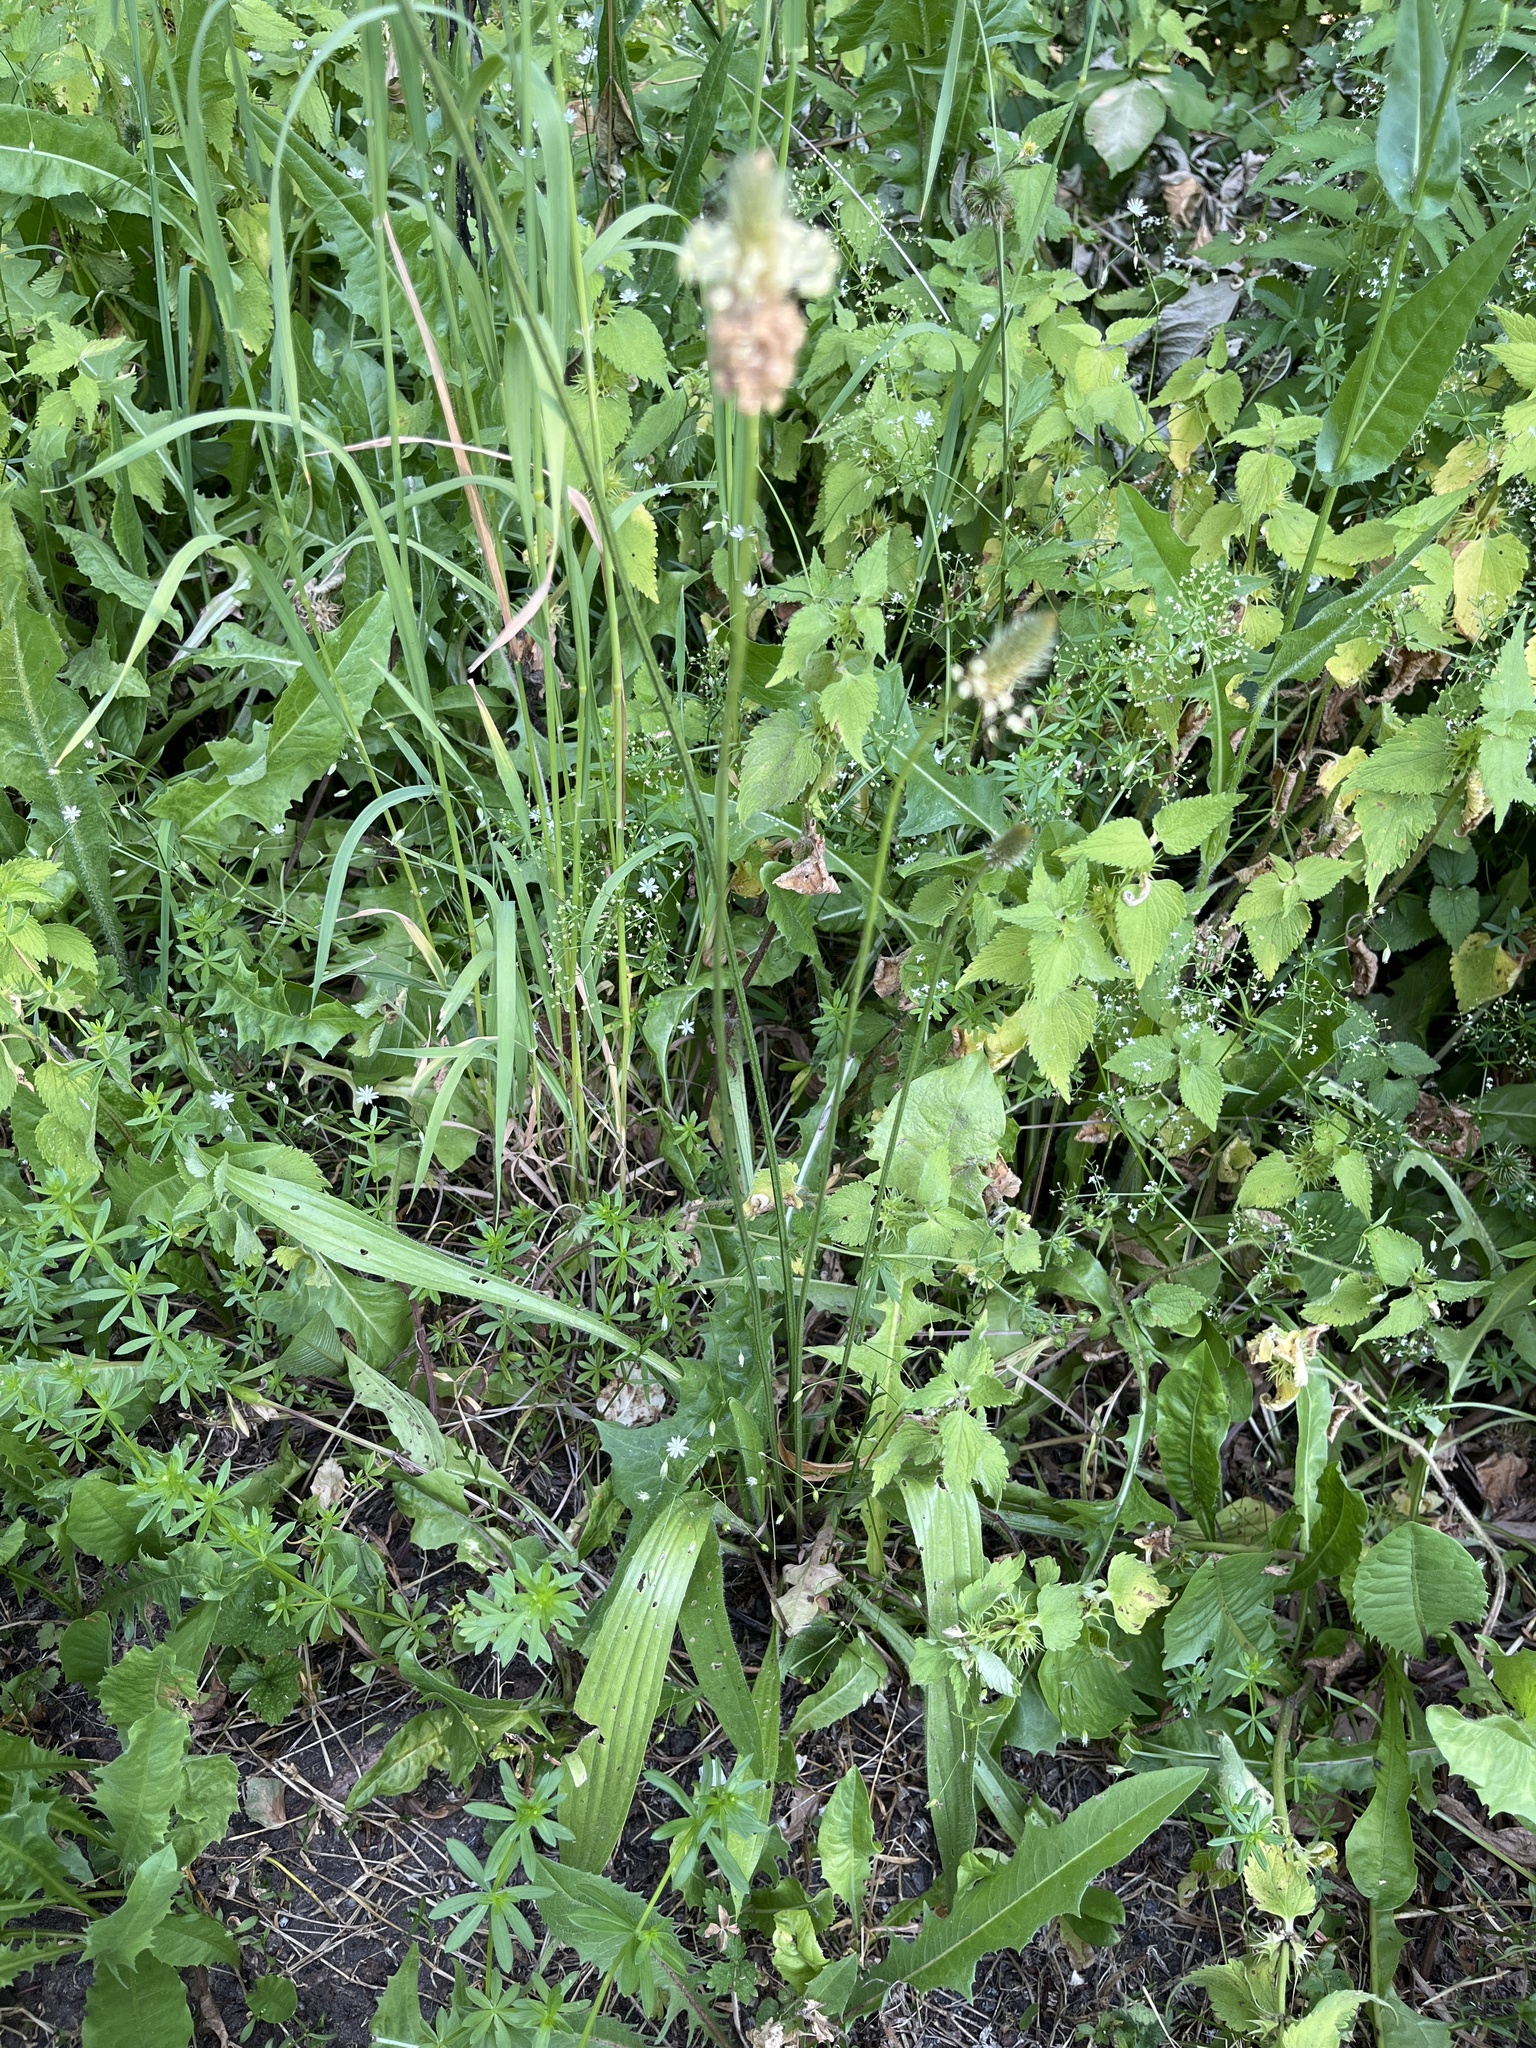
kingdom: Plantae
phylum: Tracheophyta
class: Magnoliopsida
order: Lamiales
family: Plantaginaceae
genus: Plantago
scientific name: Plantago lanceolata
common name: Ribwort plantain
